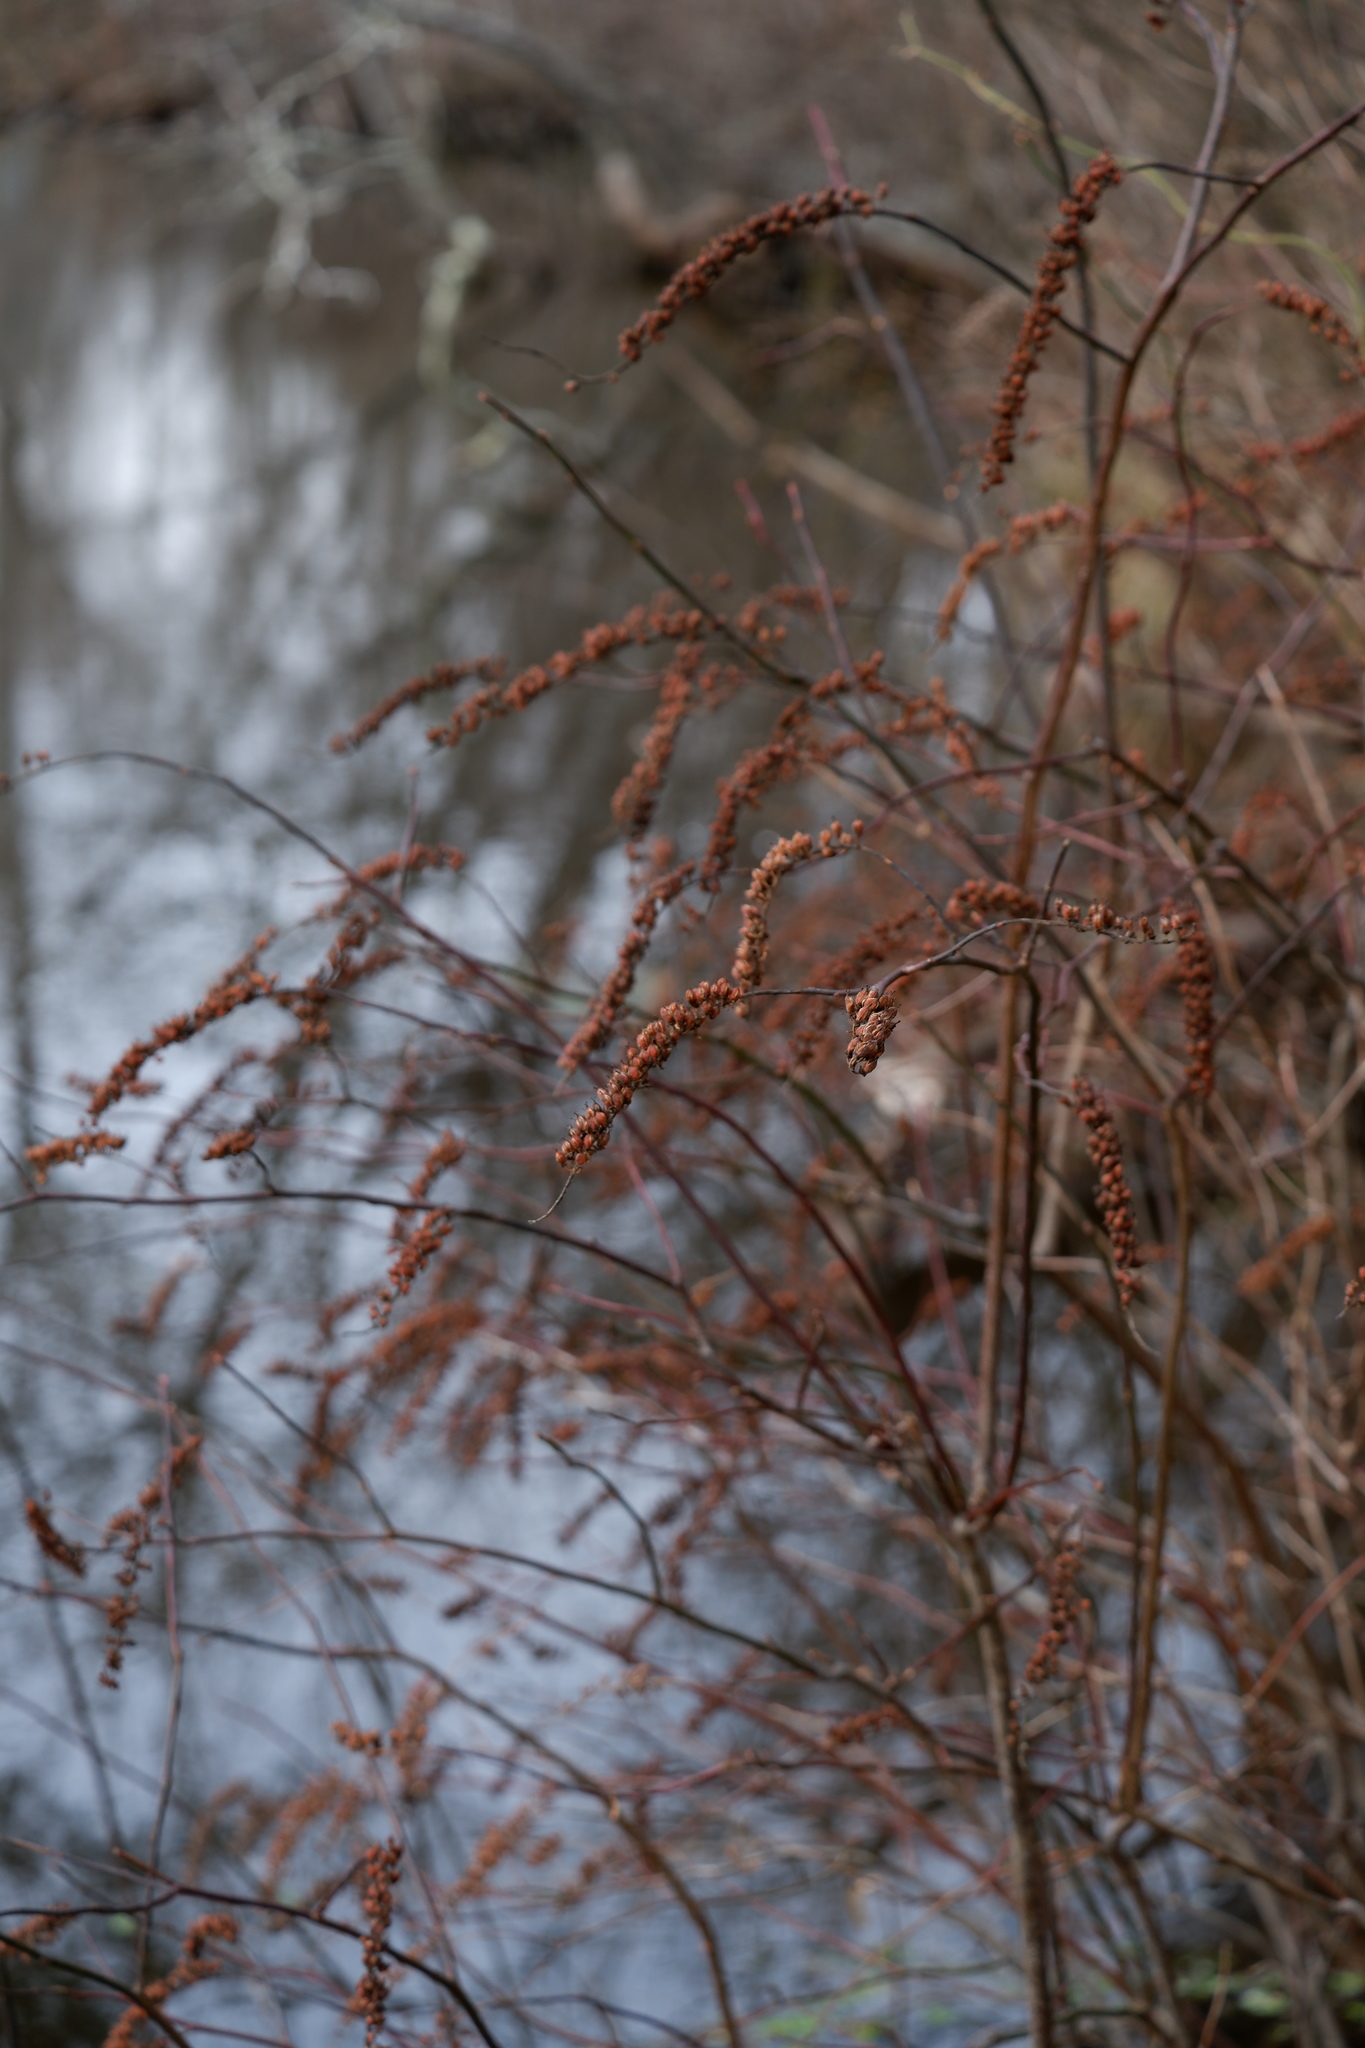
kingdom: Plantae
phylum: Tracheophyta
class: Magnoliopsida
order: Saxifragales
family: Iteaceae
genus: Itea
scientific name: Itea virginica
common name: Sweetspire
